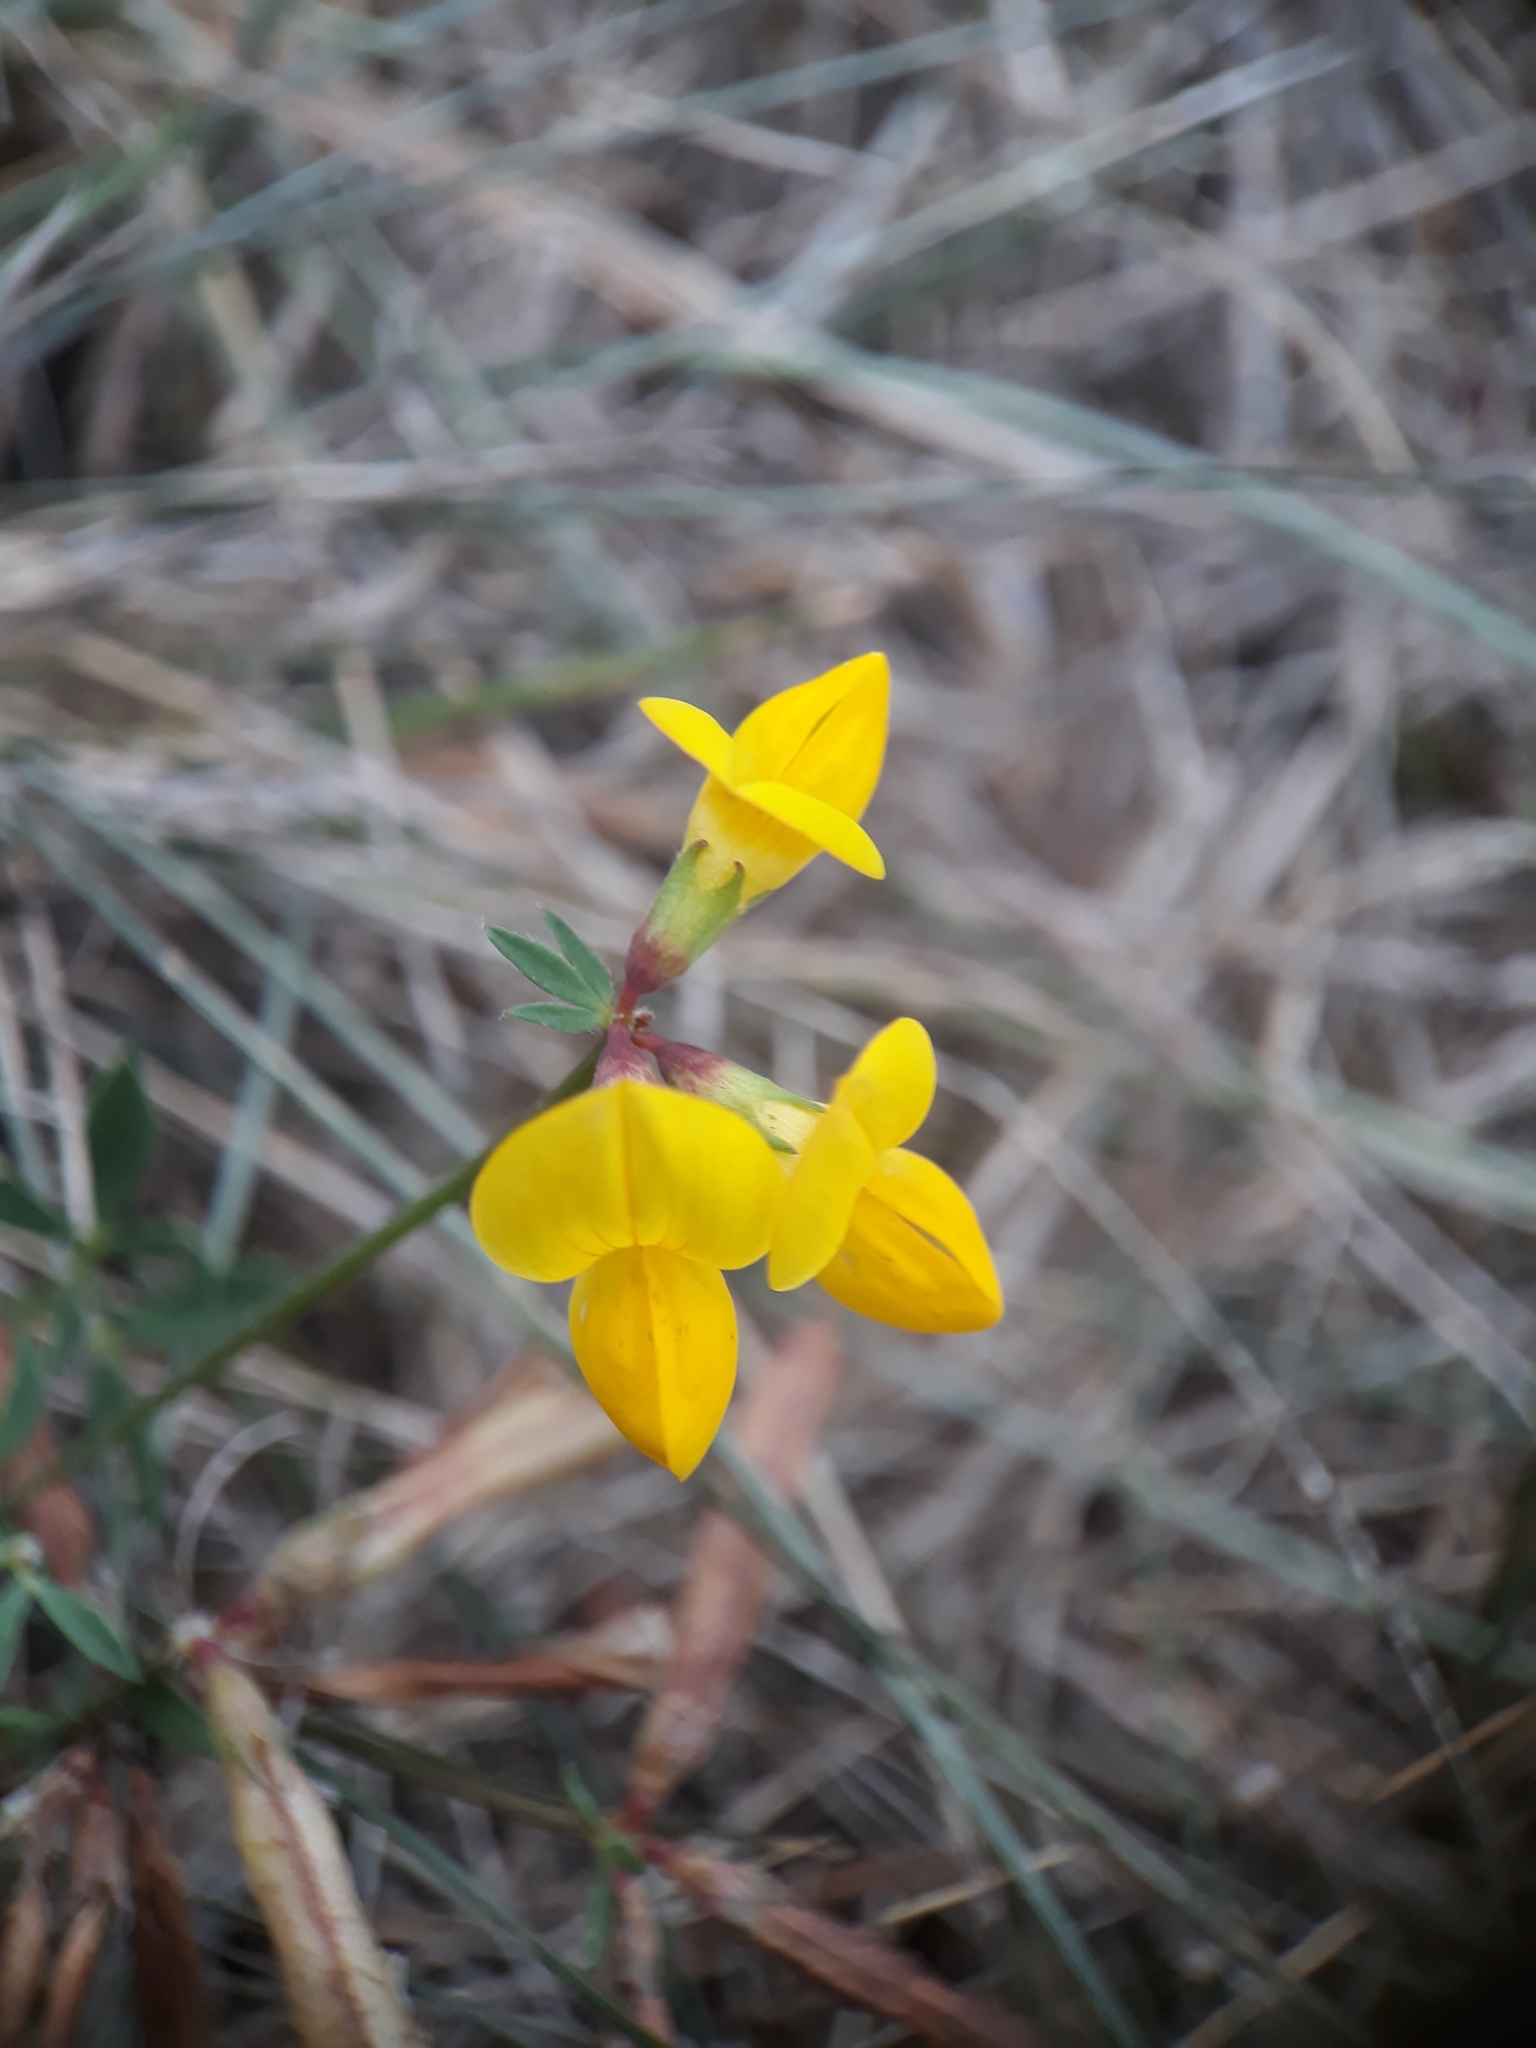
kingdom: Plantae
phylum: Tracheophyta
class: Magnoliopsida
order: Fabales
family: Fabaceae
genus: Lotus
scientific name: Lotus corniculatus
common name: Common bird's-foot-trefoil
